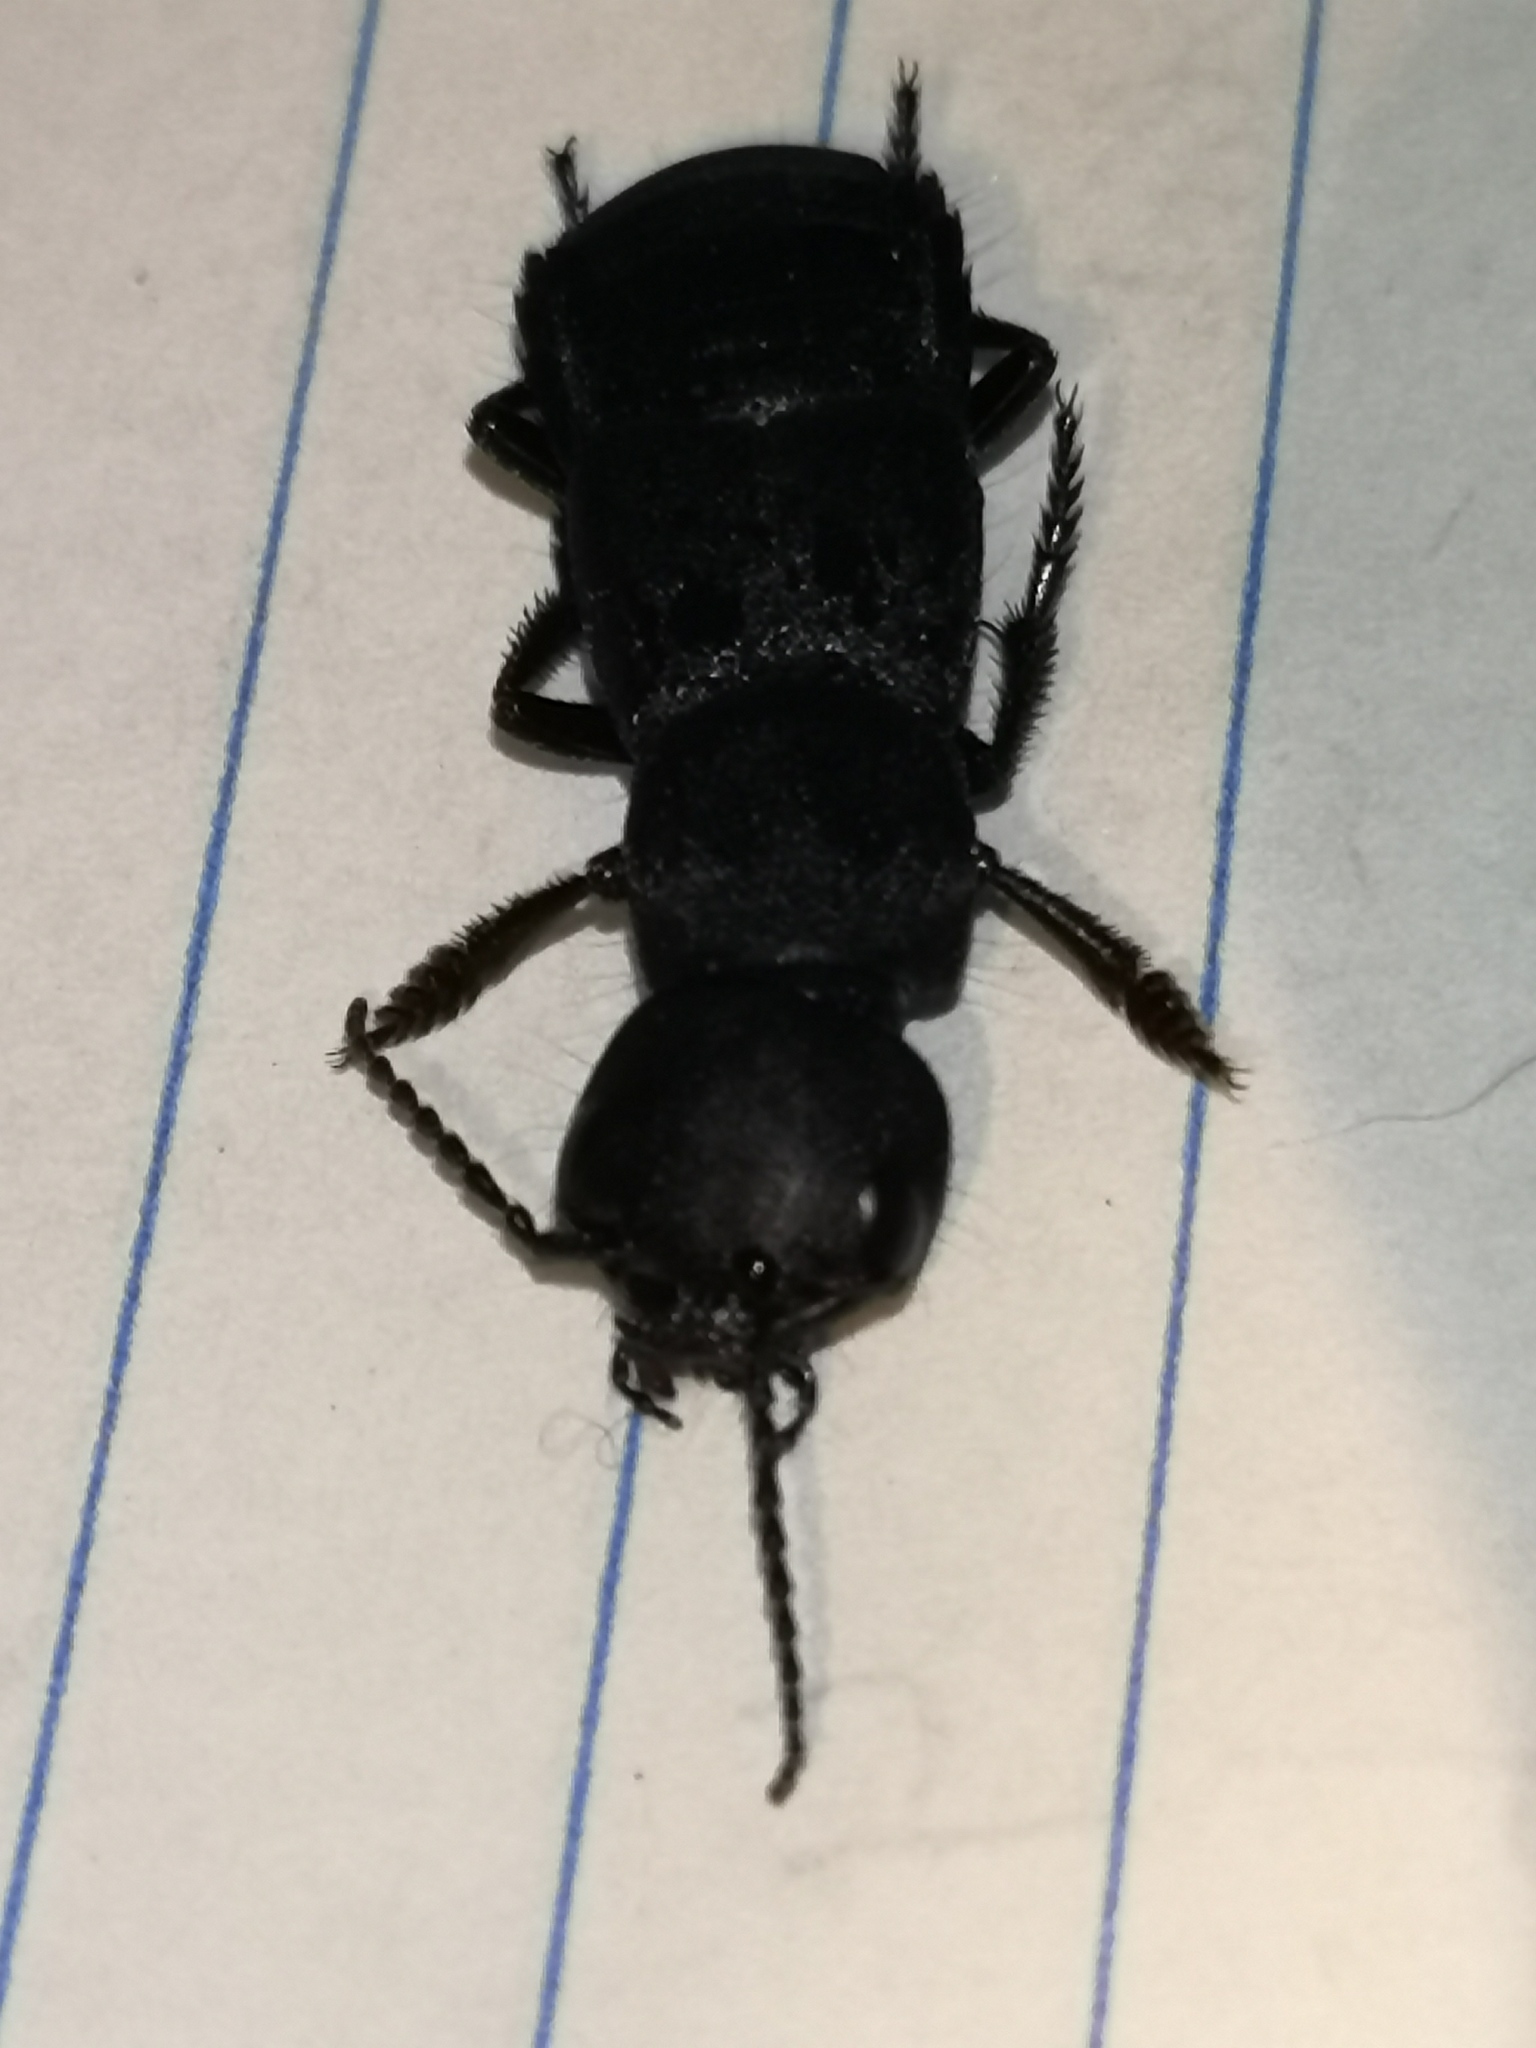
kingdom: Animalia
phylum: Arthropoda
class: Insecta
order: Coleoptera
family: Staphylinidae
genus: Ocypus
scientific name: Ocypus olens
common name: Devil's coach-horse
